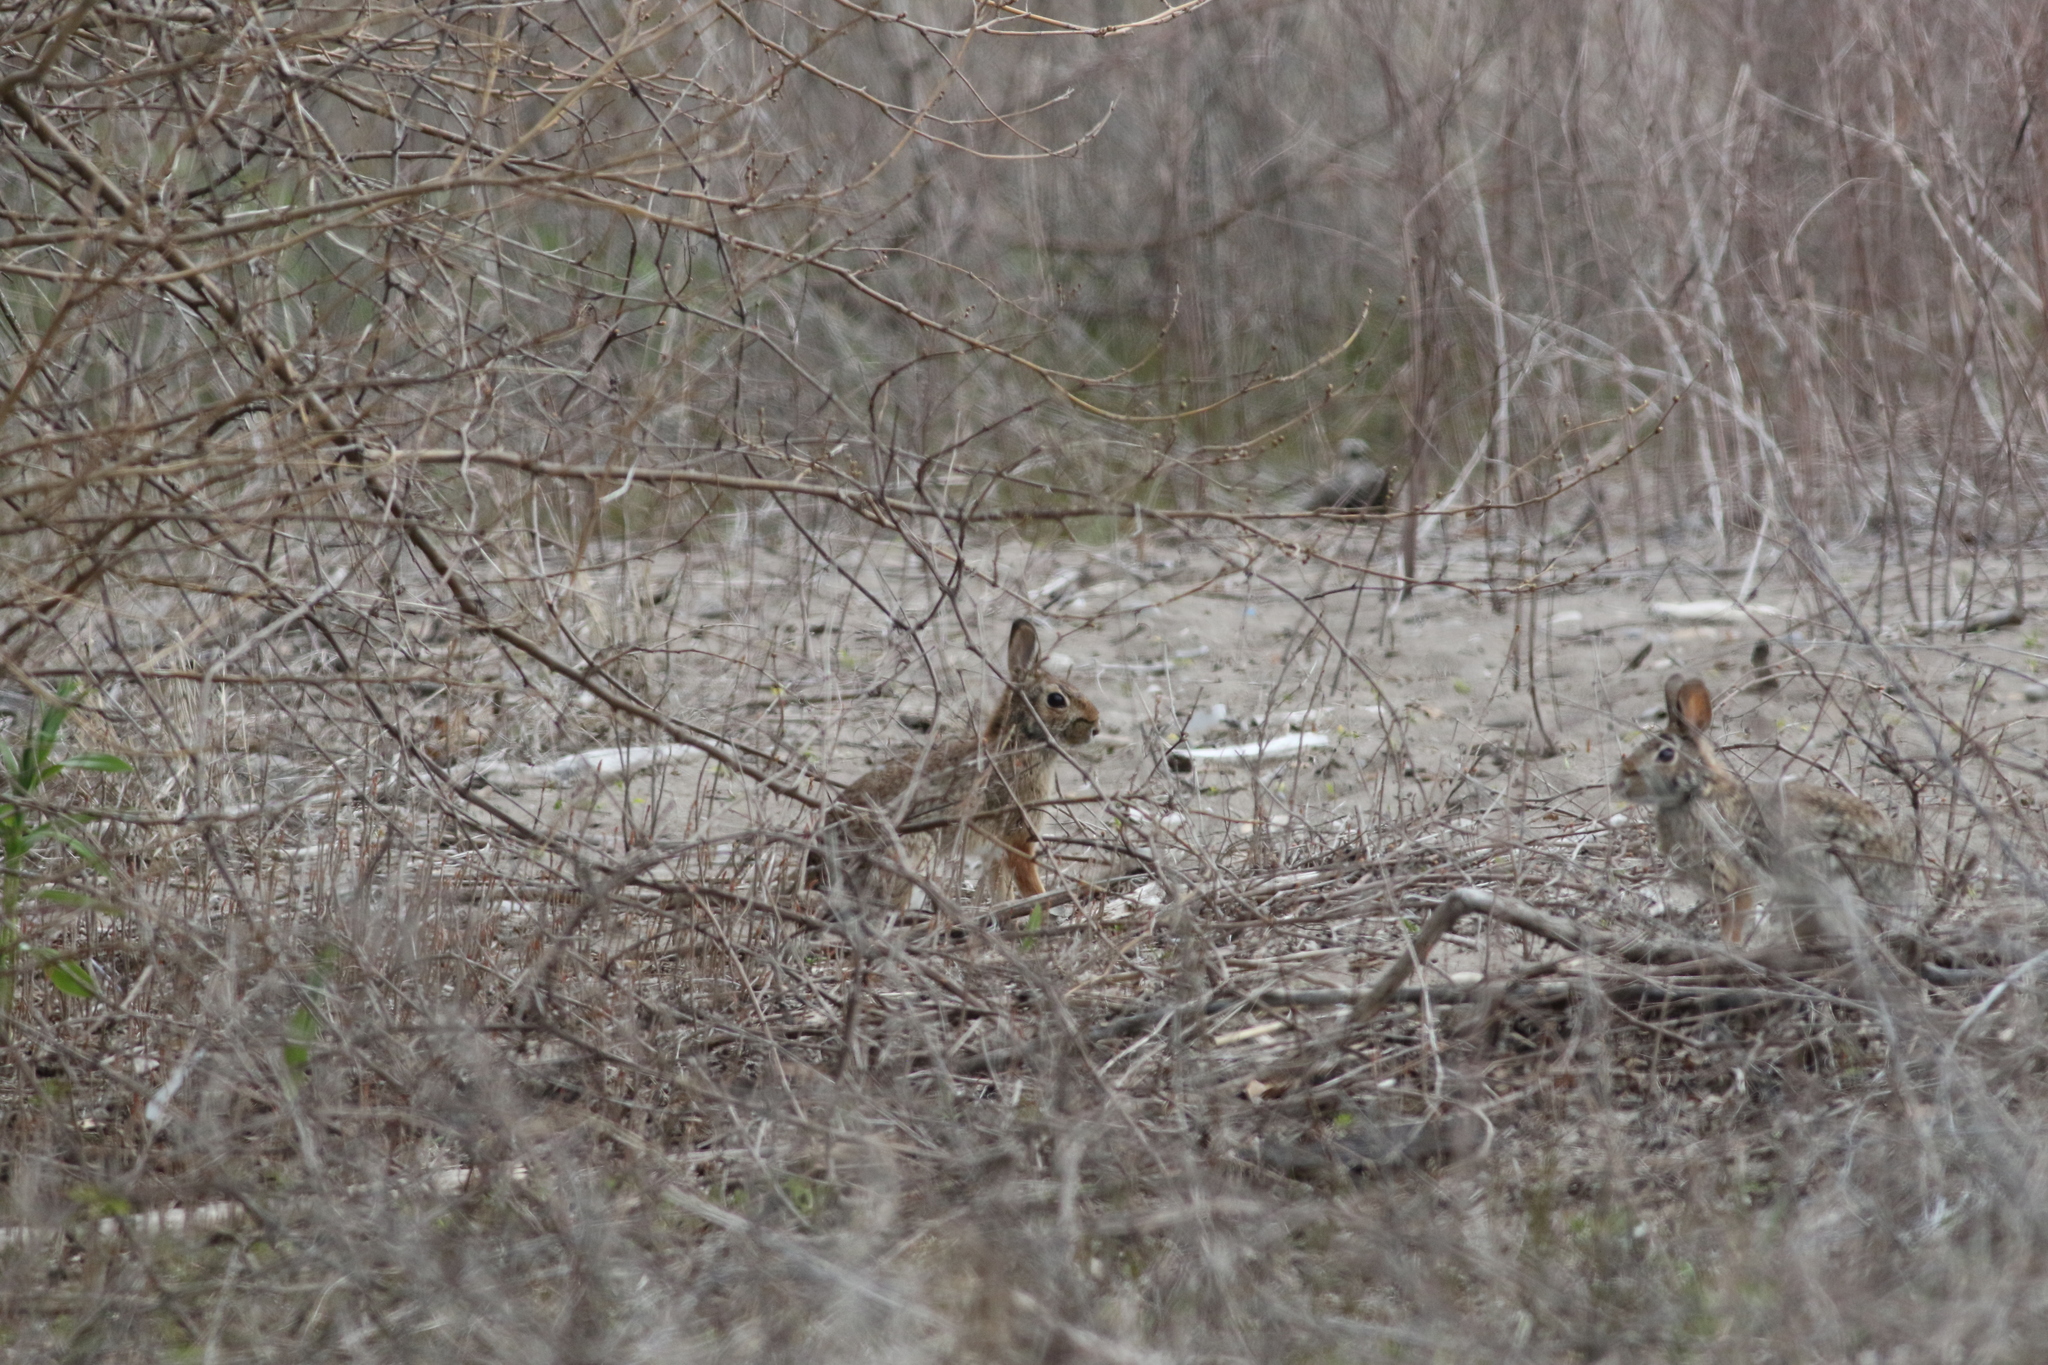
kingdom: Animalia
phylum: Chordata
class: Mammalia
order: Lagomorpha
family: Leporidae
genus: Sylvilagus
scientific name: Sylvilagus floridanus
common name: Eastern cottontail
